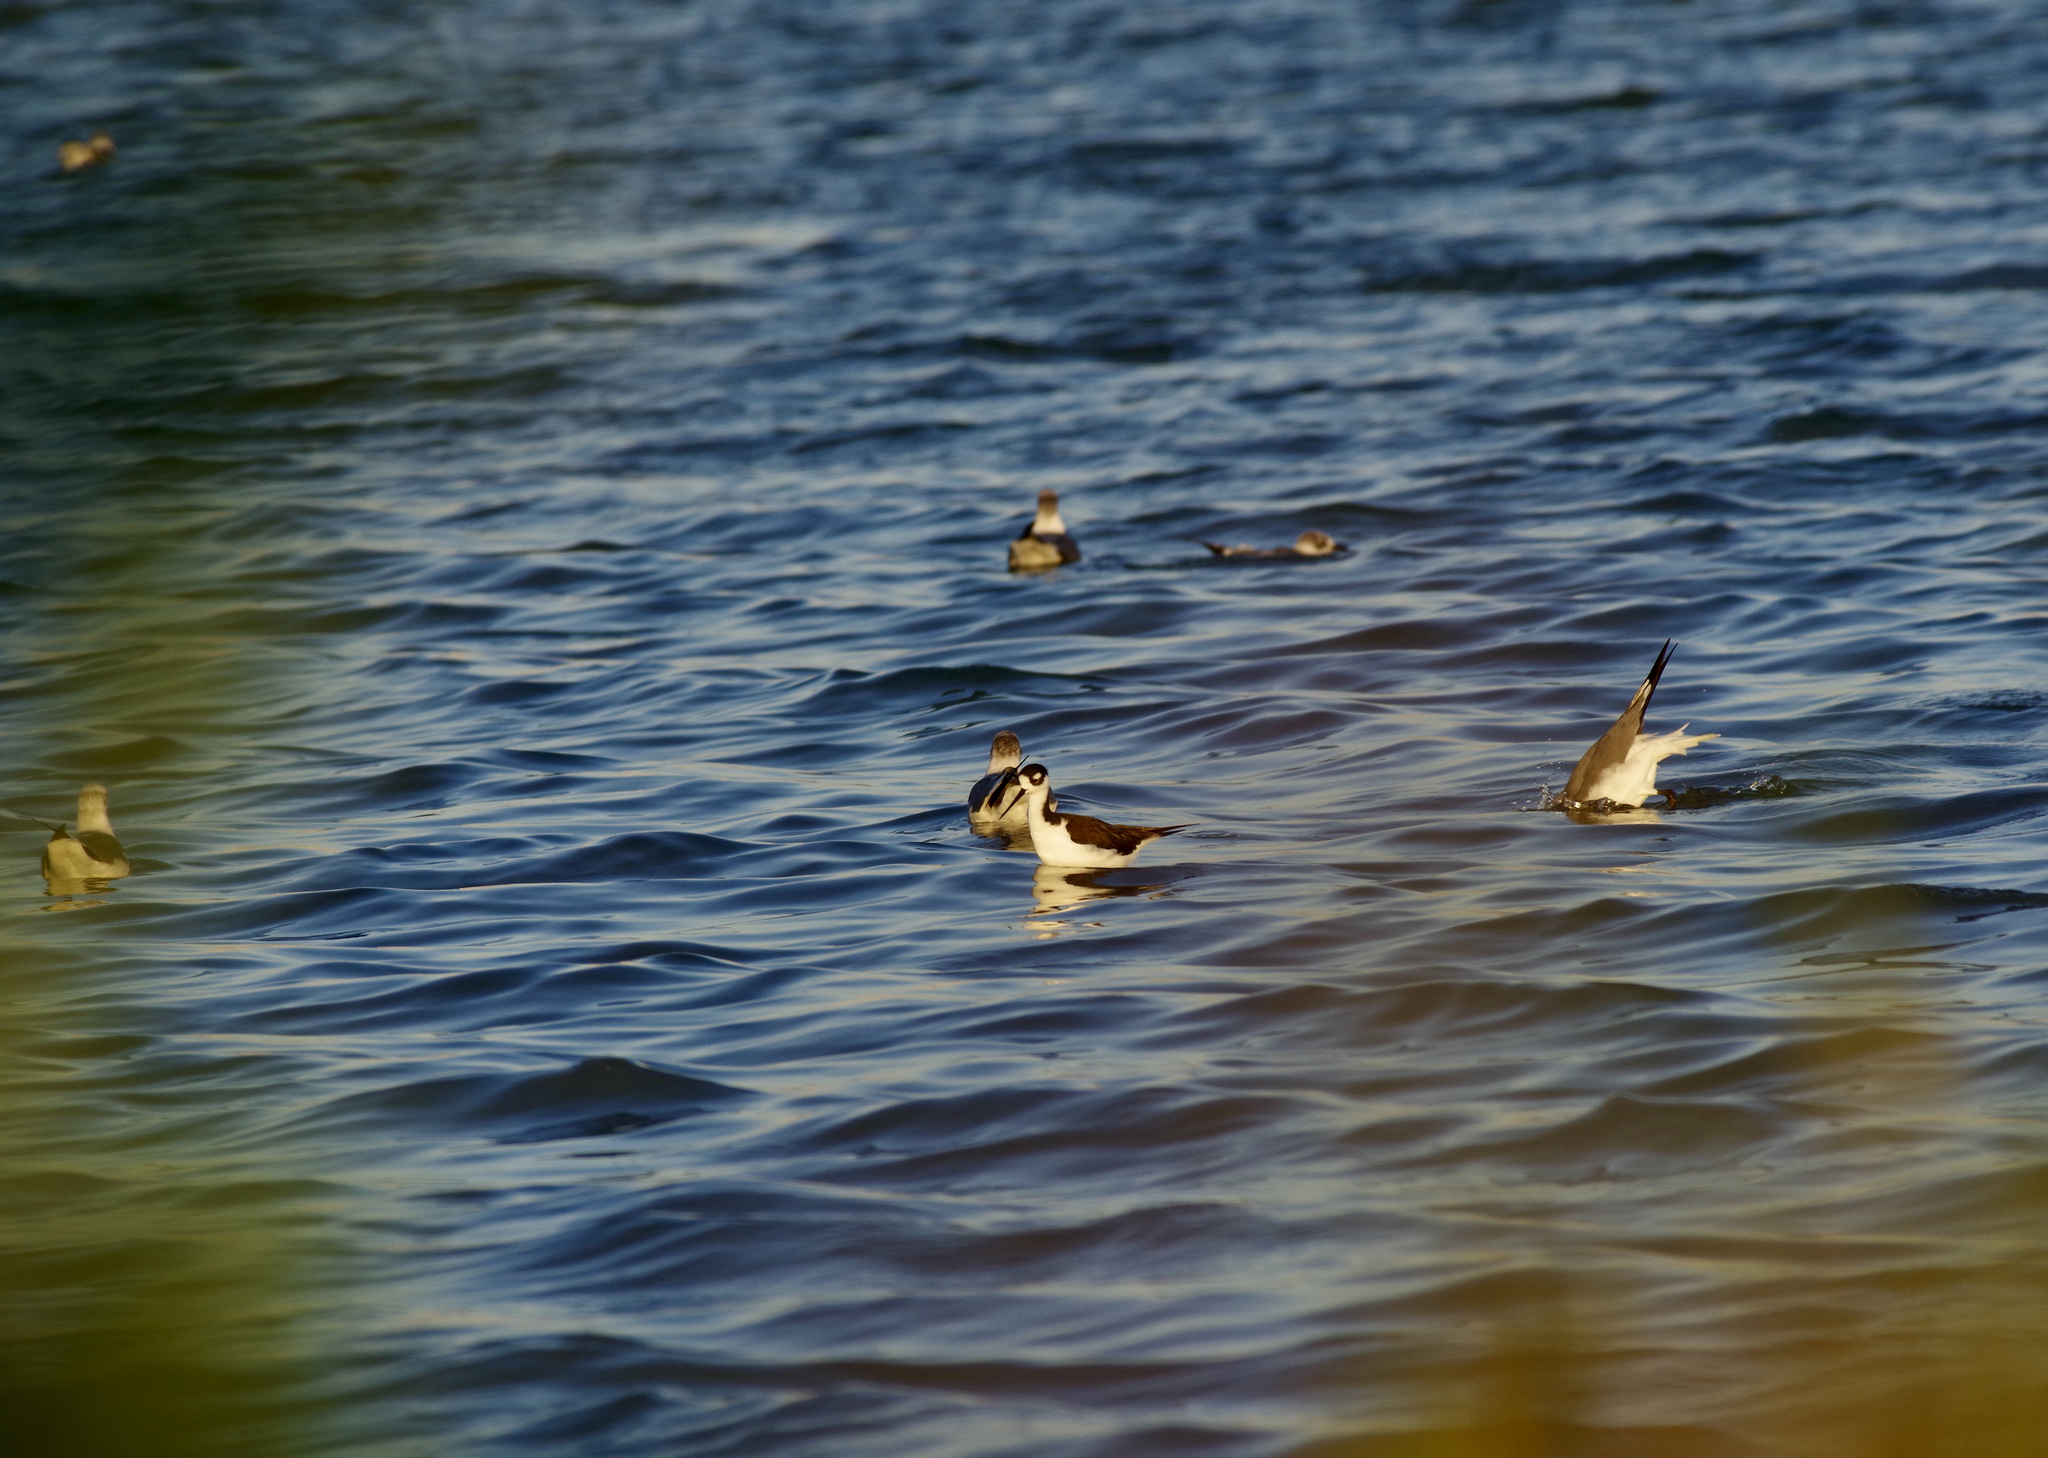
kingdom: Animalia
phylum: Chordata
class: Aves
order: Charadriiformes
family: Recurvirostridae
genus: Himantopus
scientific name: Himantopus mexicanus
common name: Black-necked stilt
